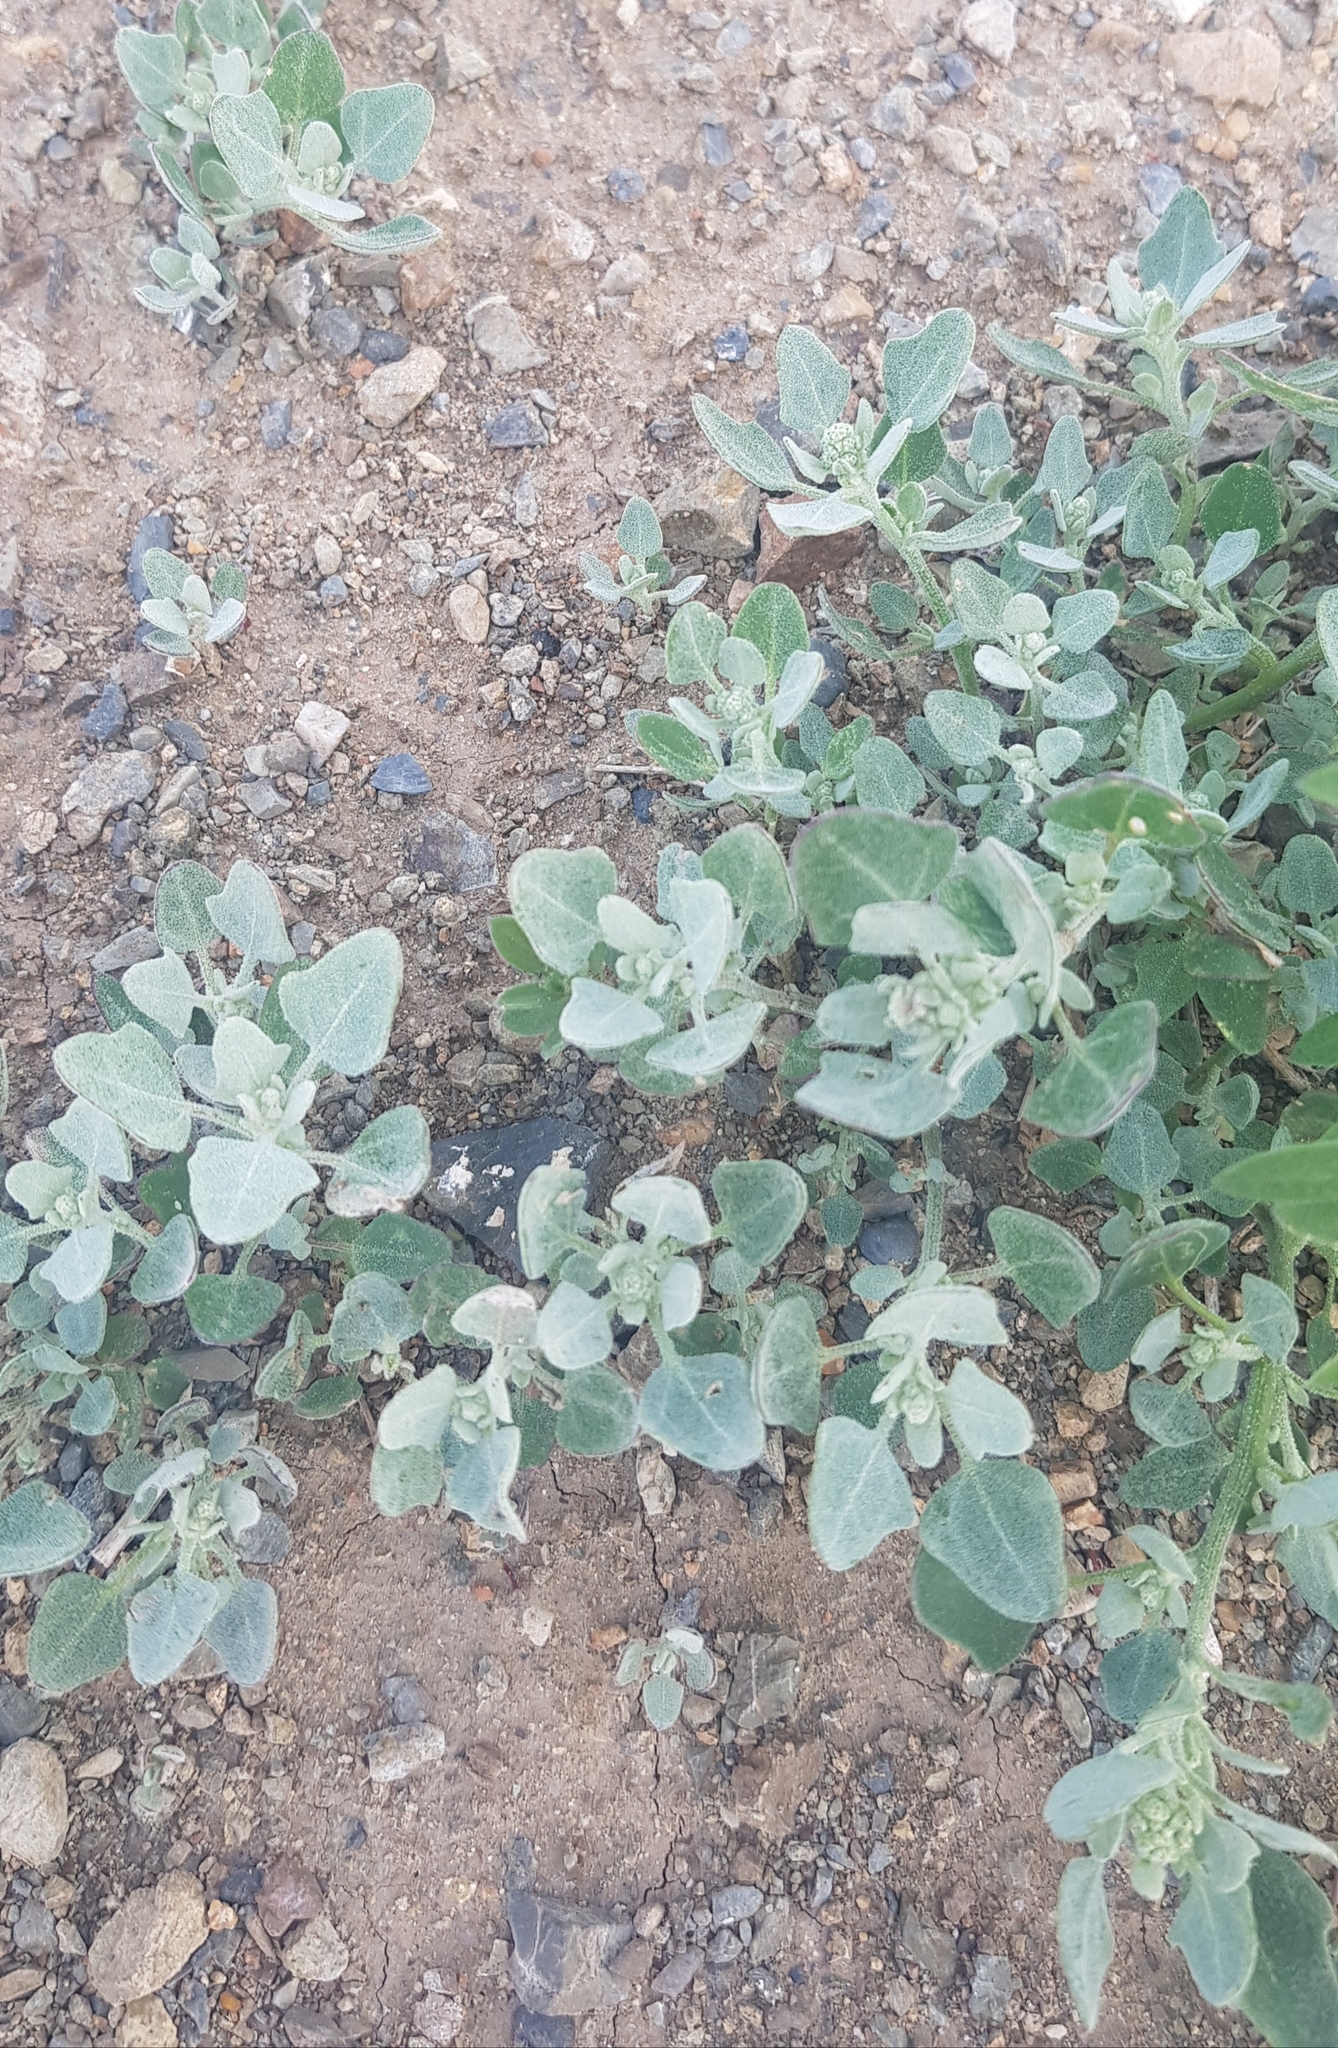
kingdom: Plantae
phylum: Tracheophyta
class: Magnoliopsida
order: Caryophyllales
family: Amaranthaceae
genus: Chenopodium
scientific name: Chenopodium acuminatum
